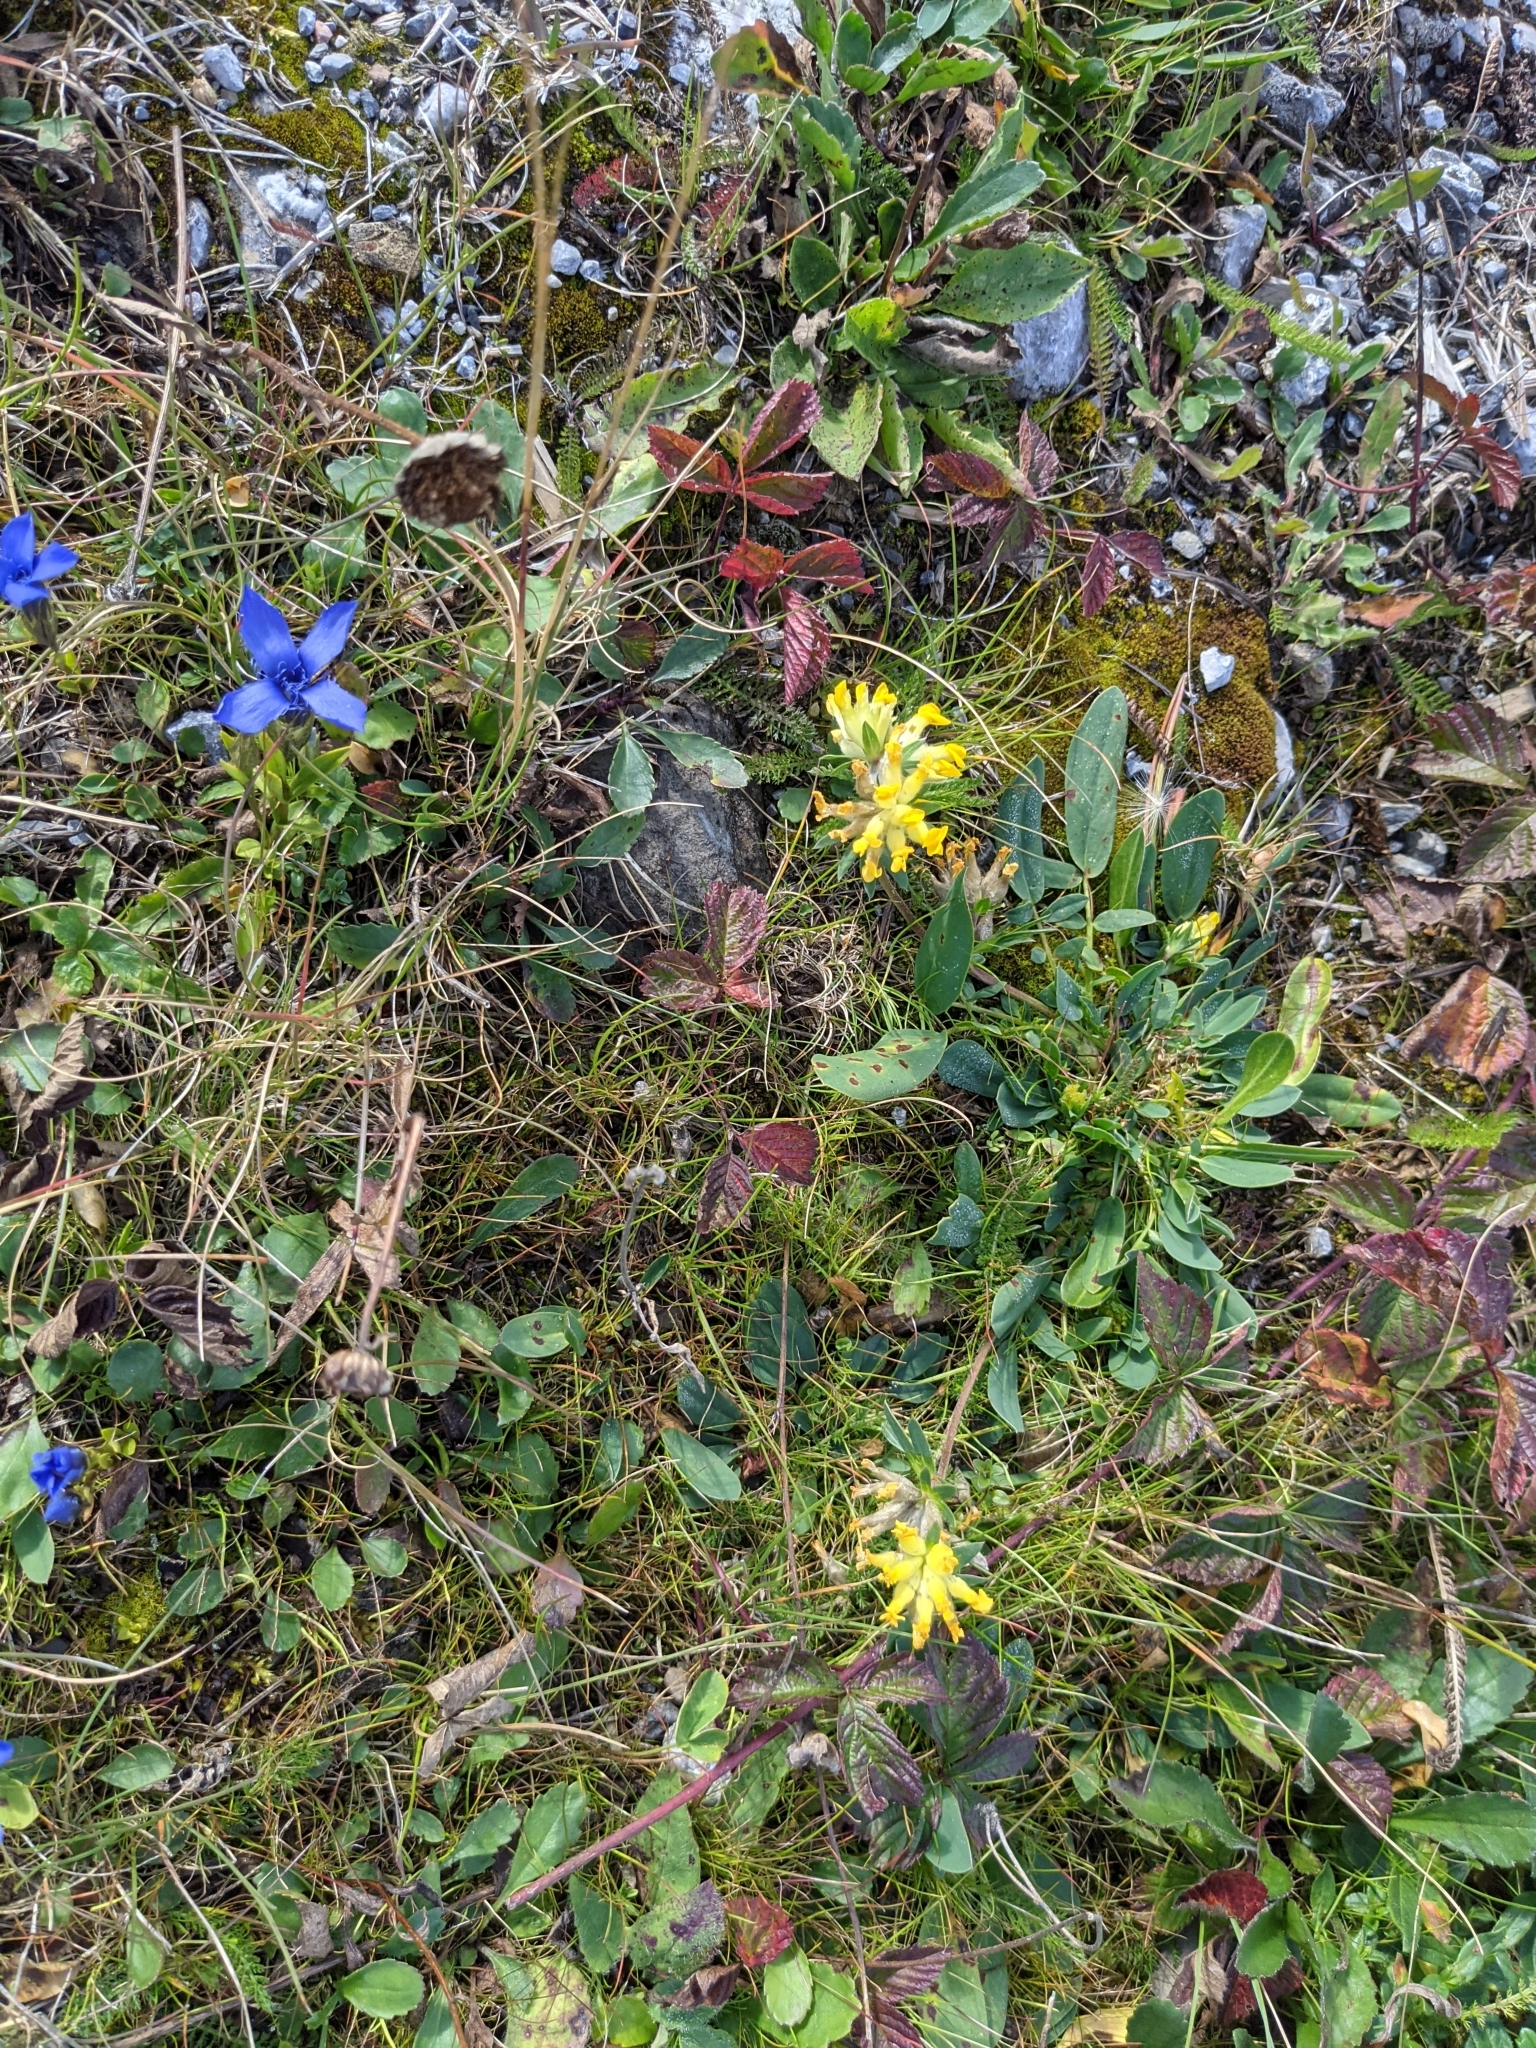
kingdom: Plantae
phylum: Tracheophyta
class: Magnoliopsida
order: Fabales
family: Fabaceae
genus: Anthyllis
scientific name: Anthyllis vulneraria
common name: Kidney vetch
